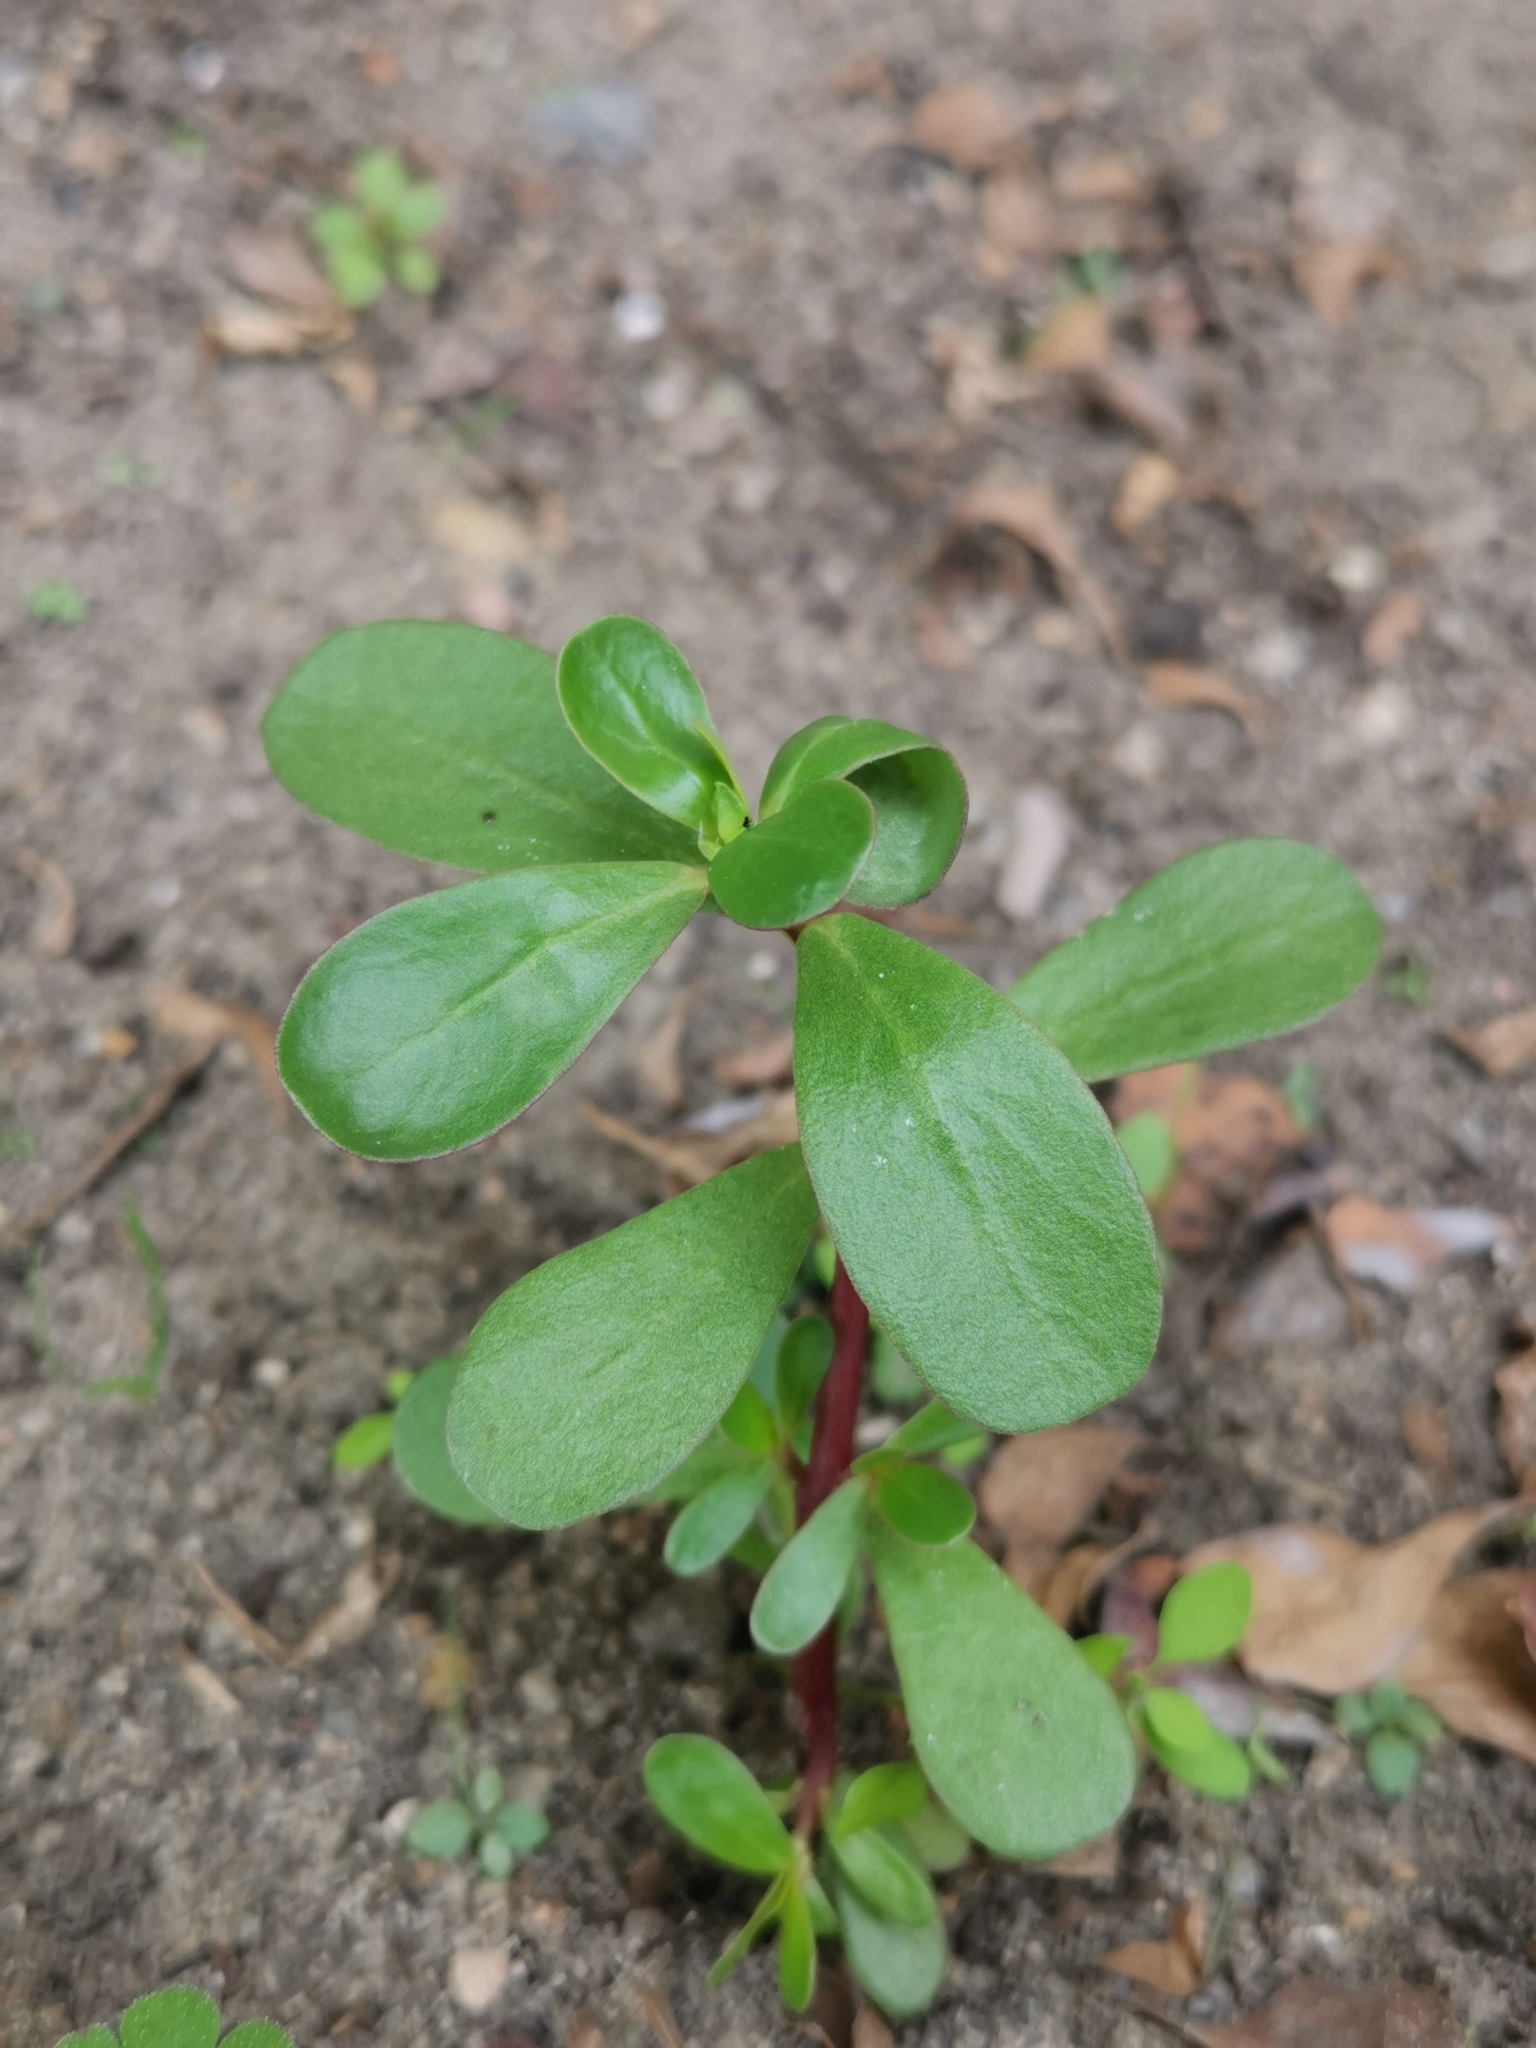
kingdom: Plantae
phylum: Tracheophyta
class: Magnoliopsida
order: Caryophyllales
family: Portulacaceae
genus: Portulaca
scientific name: Portulaca oleracea
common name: Common purslane
